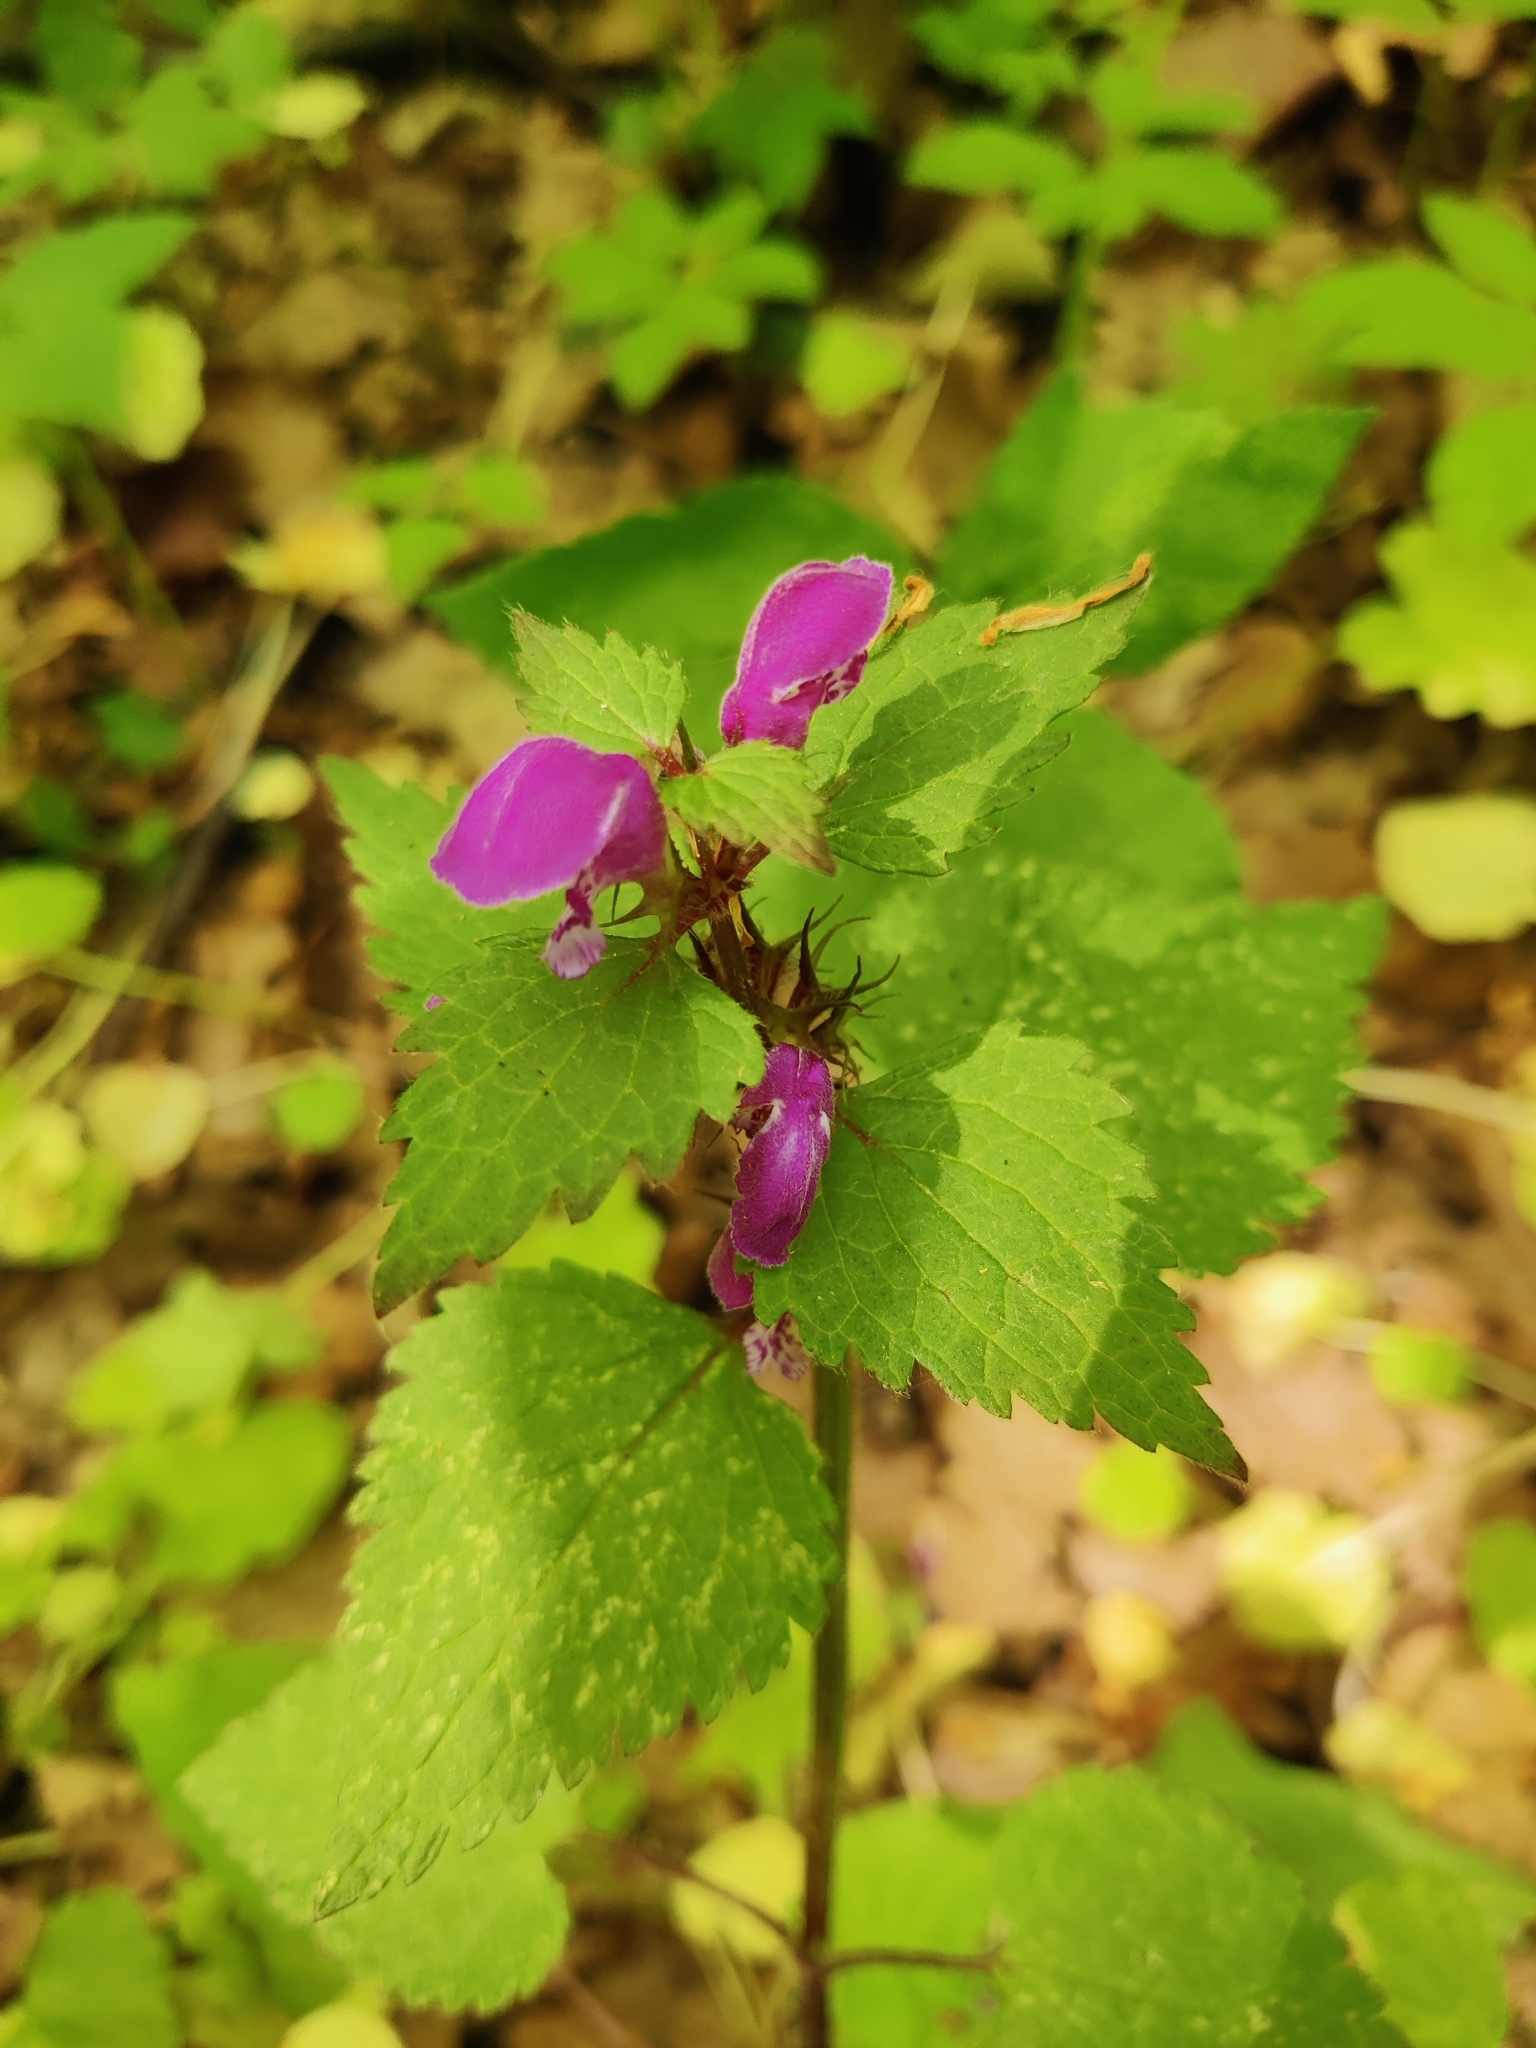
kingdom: Plantae
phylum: Tracheophyta
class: Magnoliopsida
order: Lamiales
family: Lamiaceae
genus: Lamium
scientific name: Lamium maculatum
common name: Spotted dead-nettle
